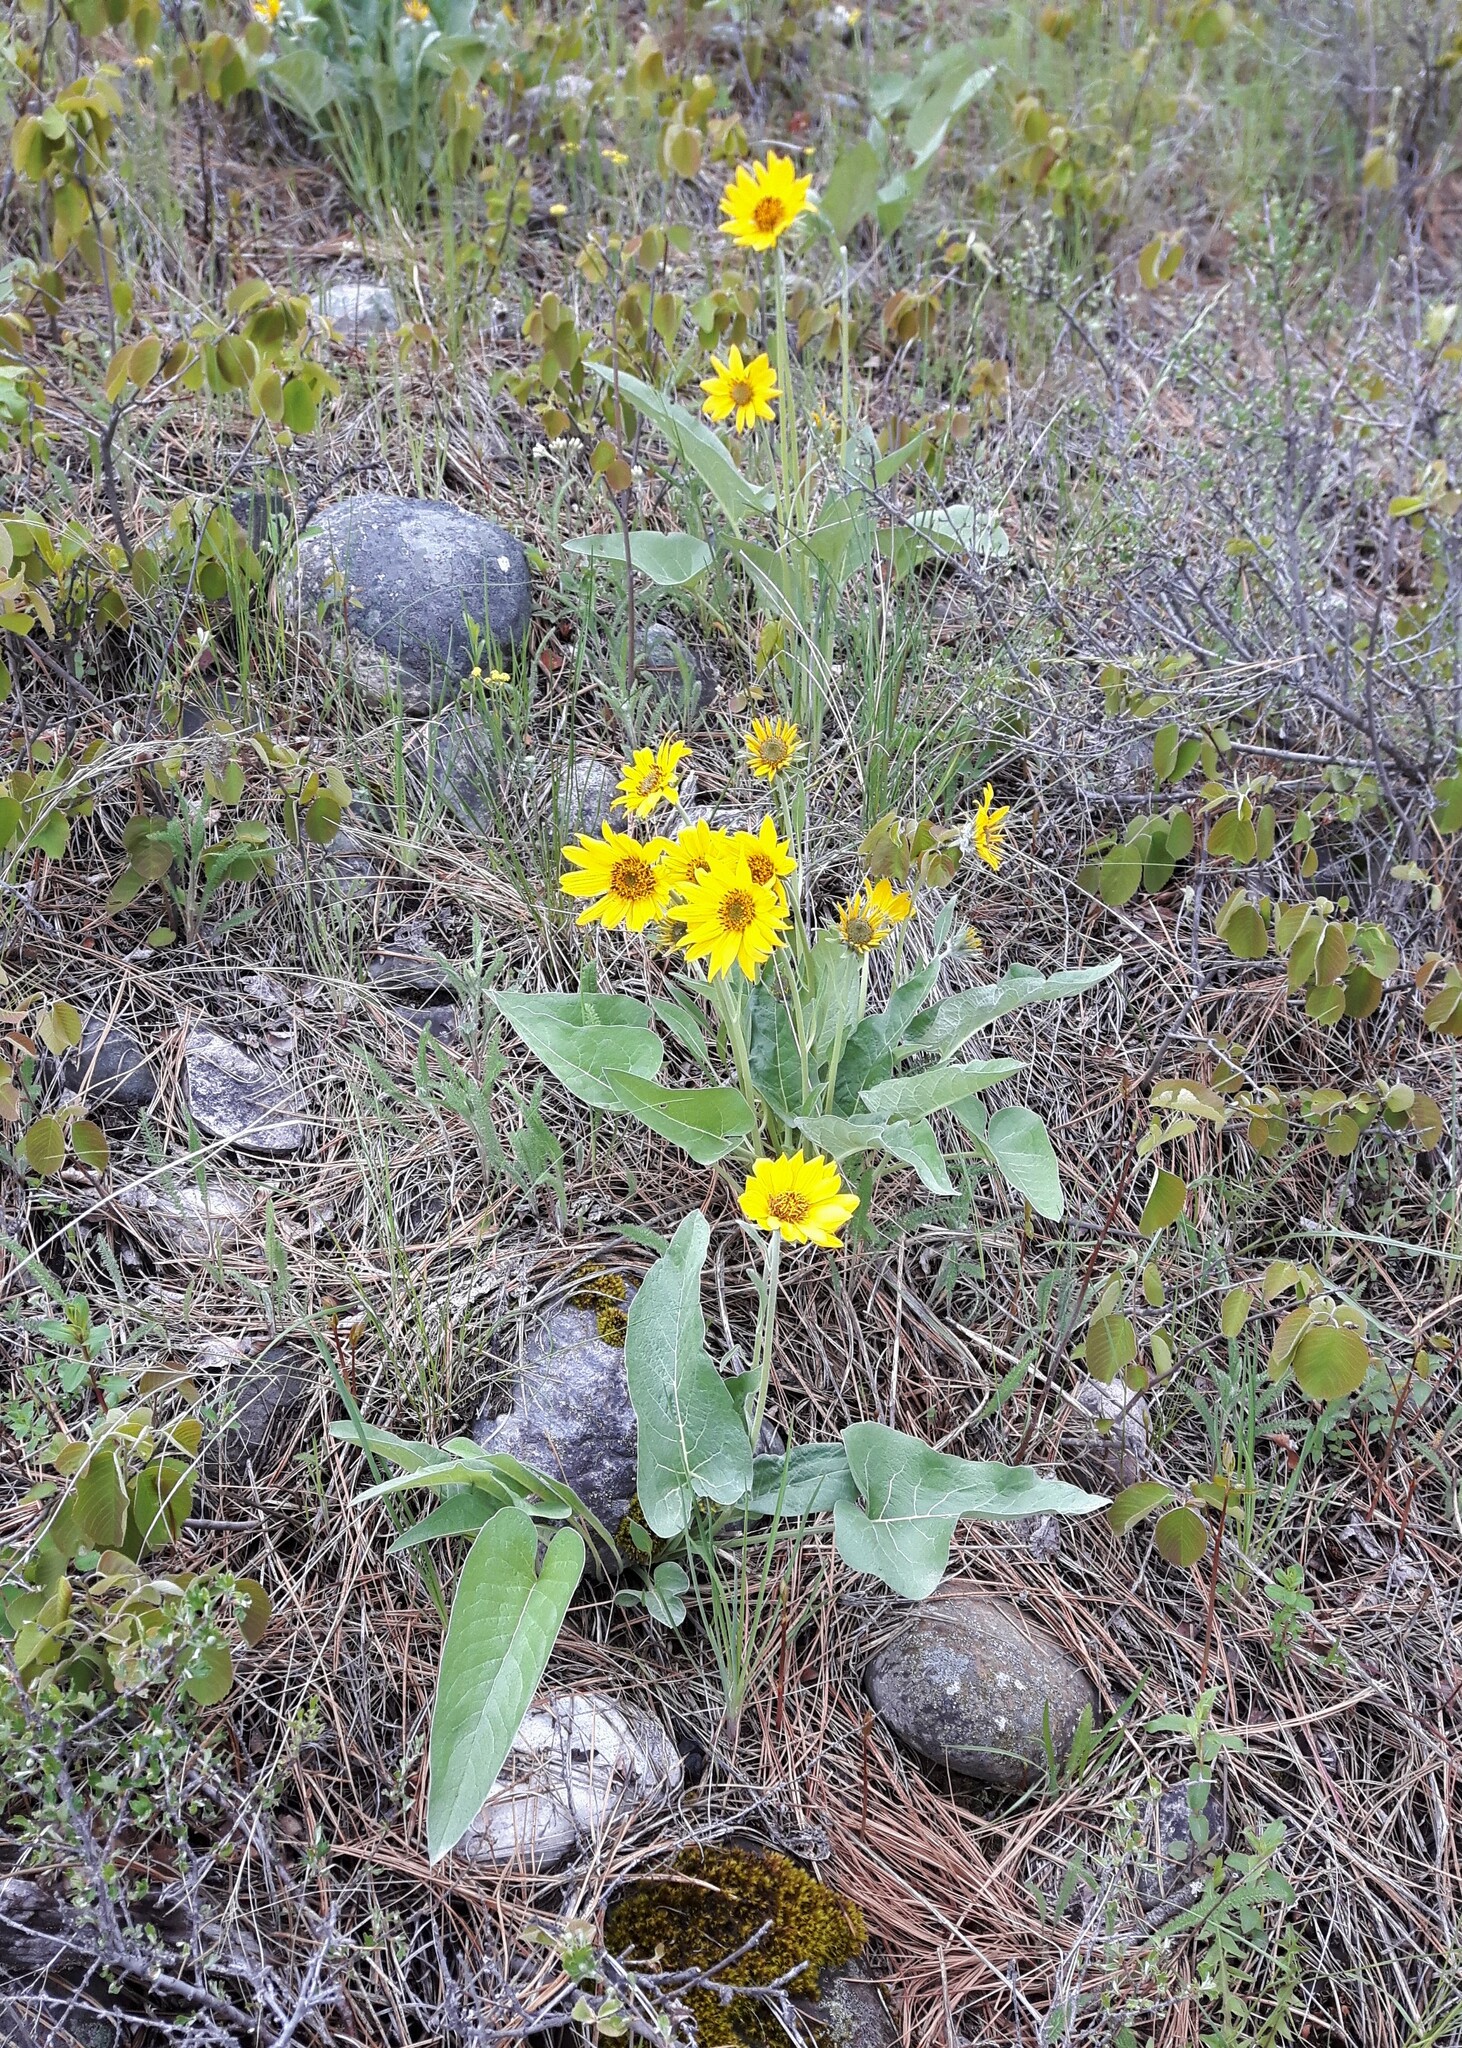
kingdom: Plantae
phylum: Tracheophyta
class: Magnoliopsida
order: Asterales
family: Asteraceae
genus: Wyethia
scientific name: Wyethia sagittata
